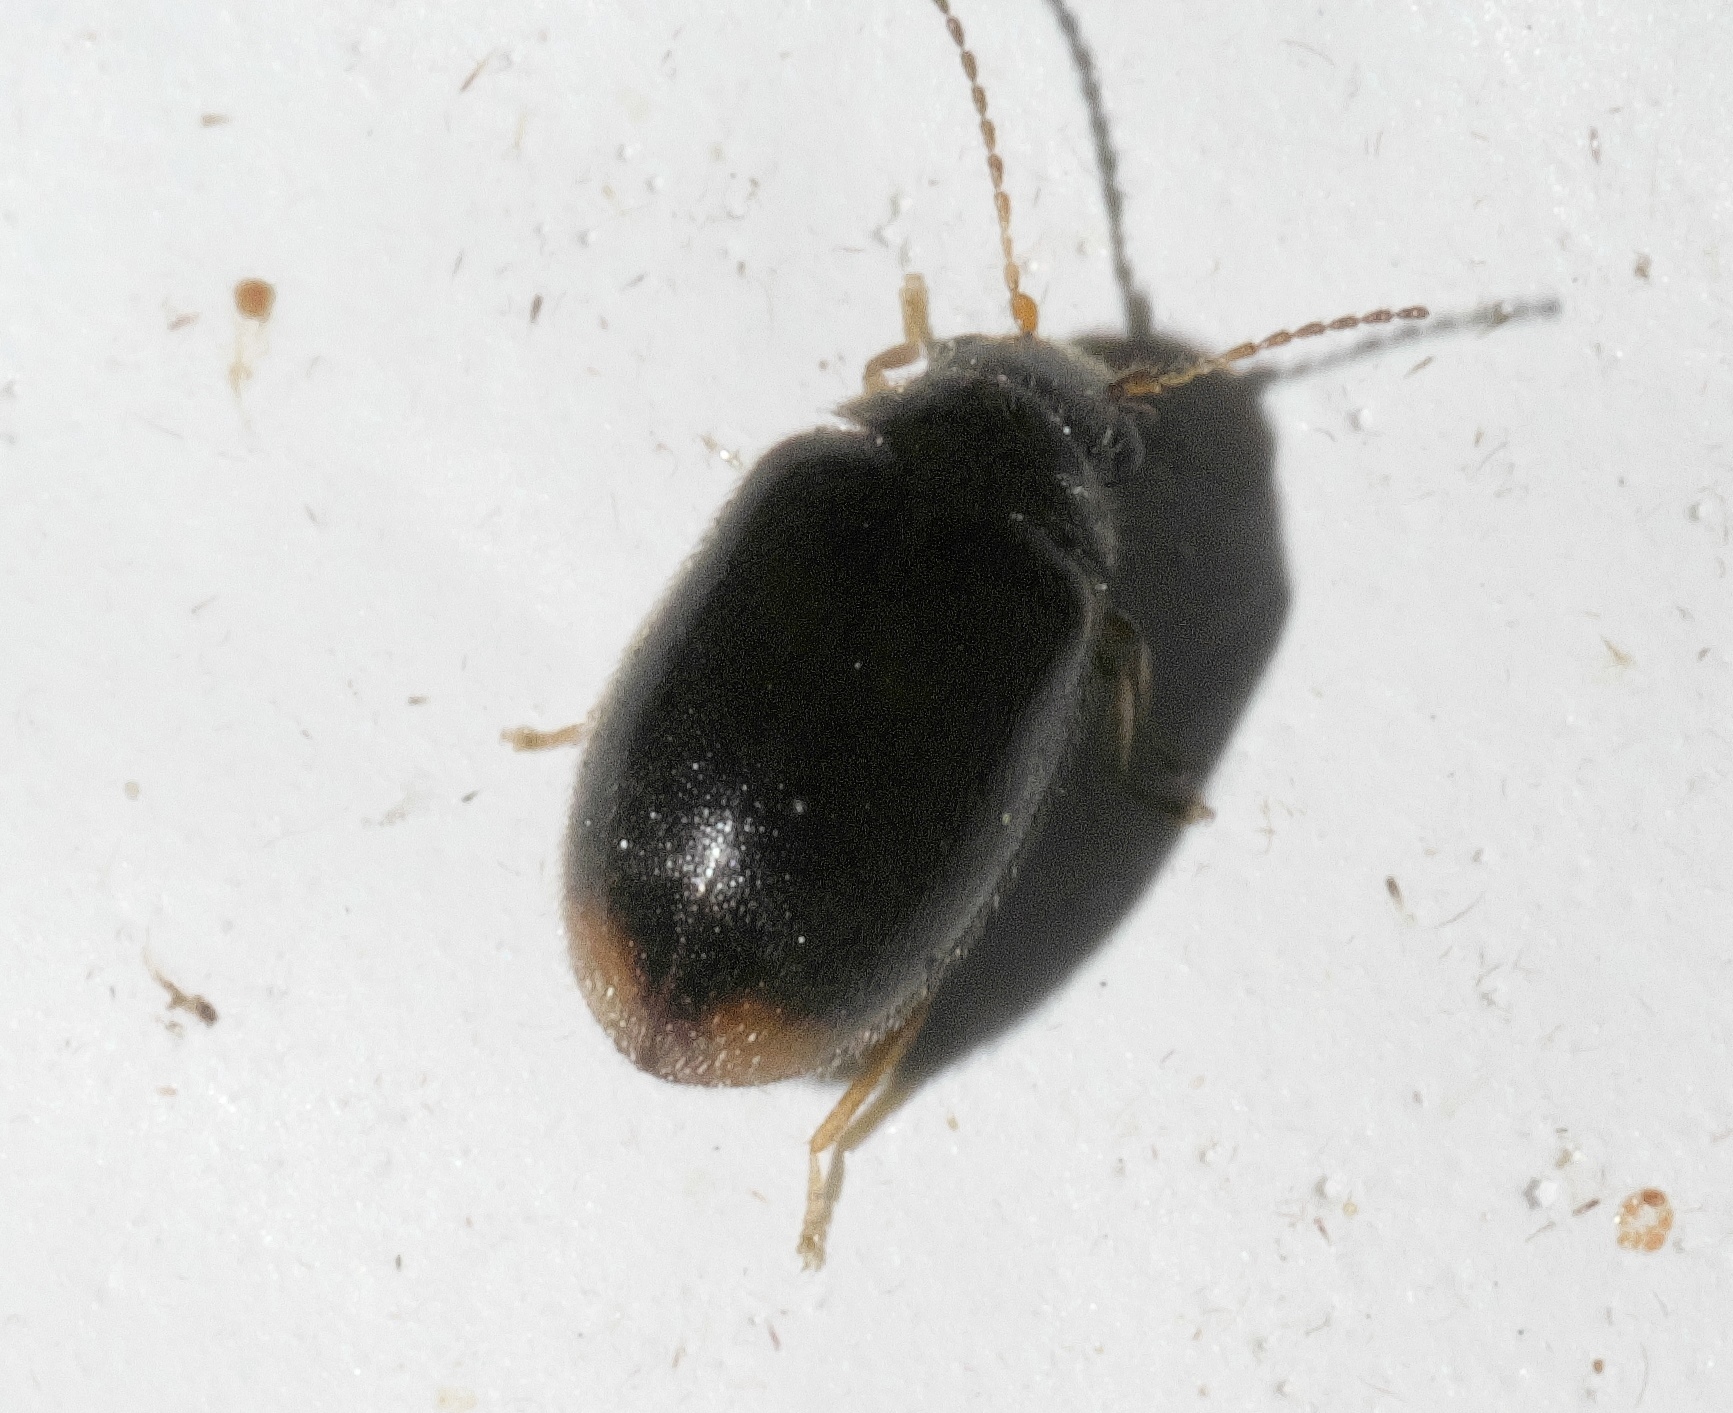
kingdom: Animalia
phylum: Arthropoda
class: Insecta
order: Coleoptera
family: Scirtidae
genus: Contacyphon
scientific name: Contacyphon neopadi
